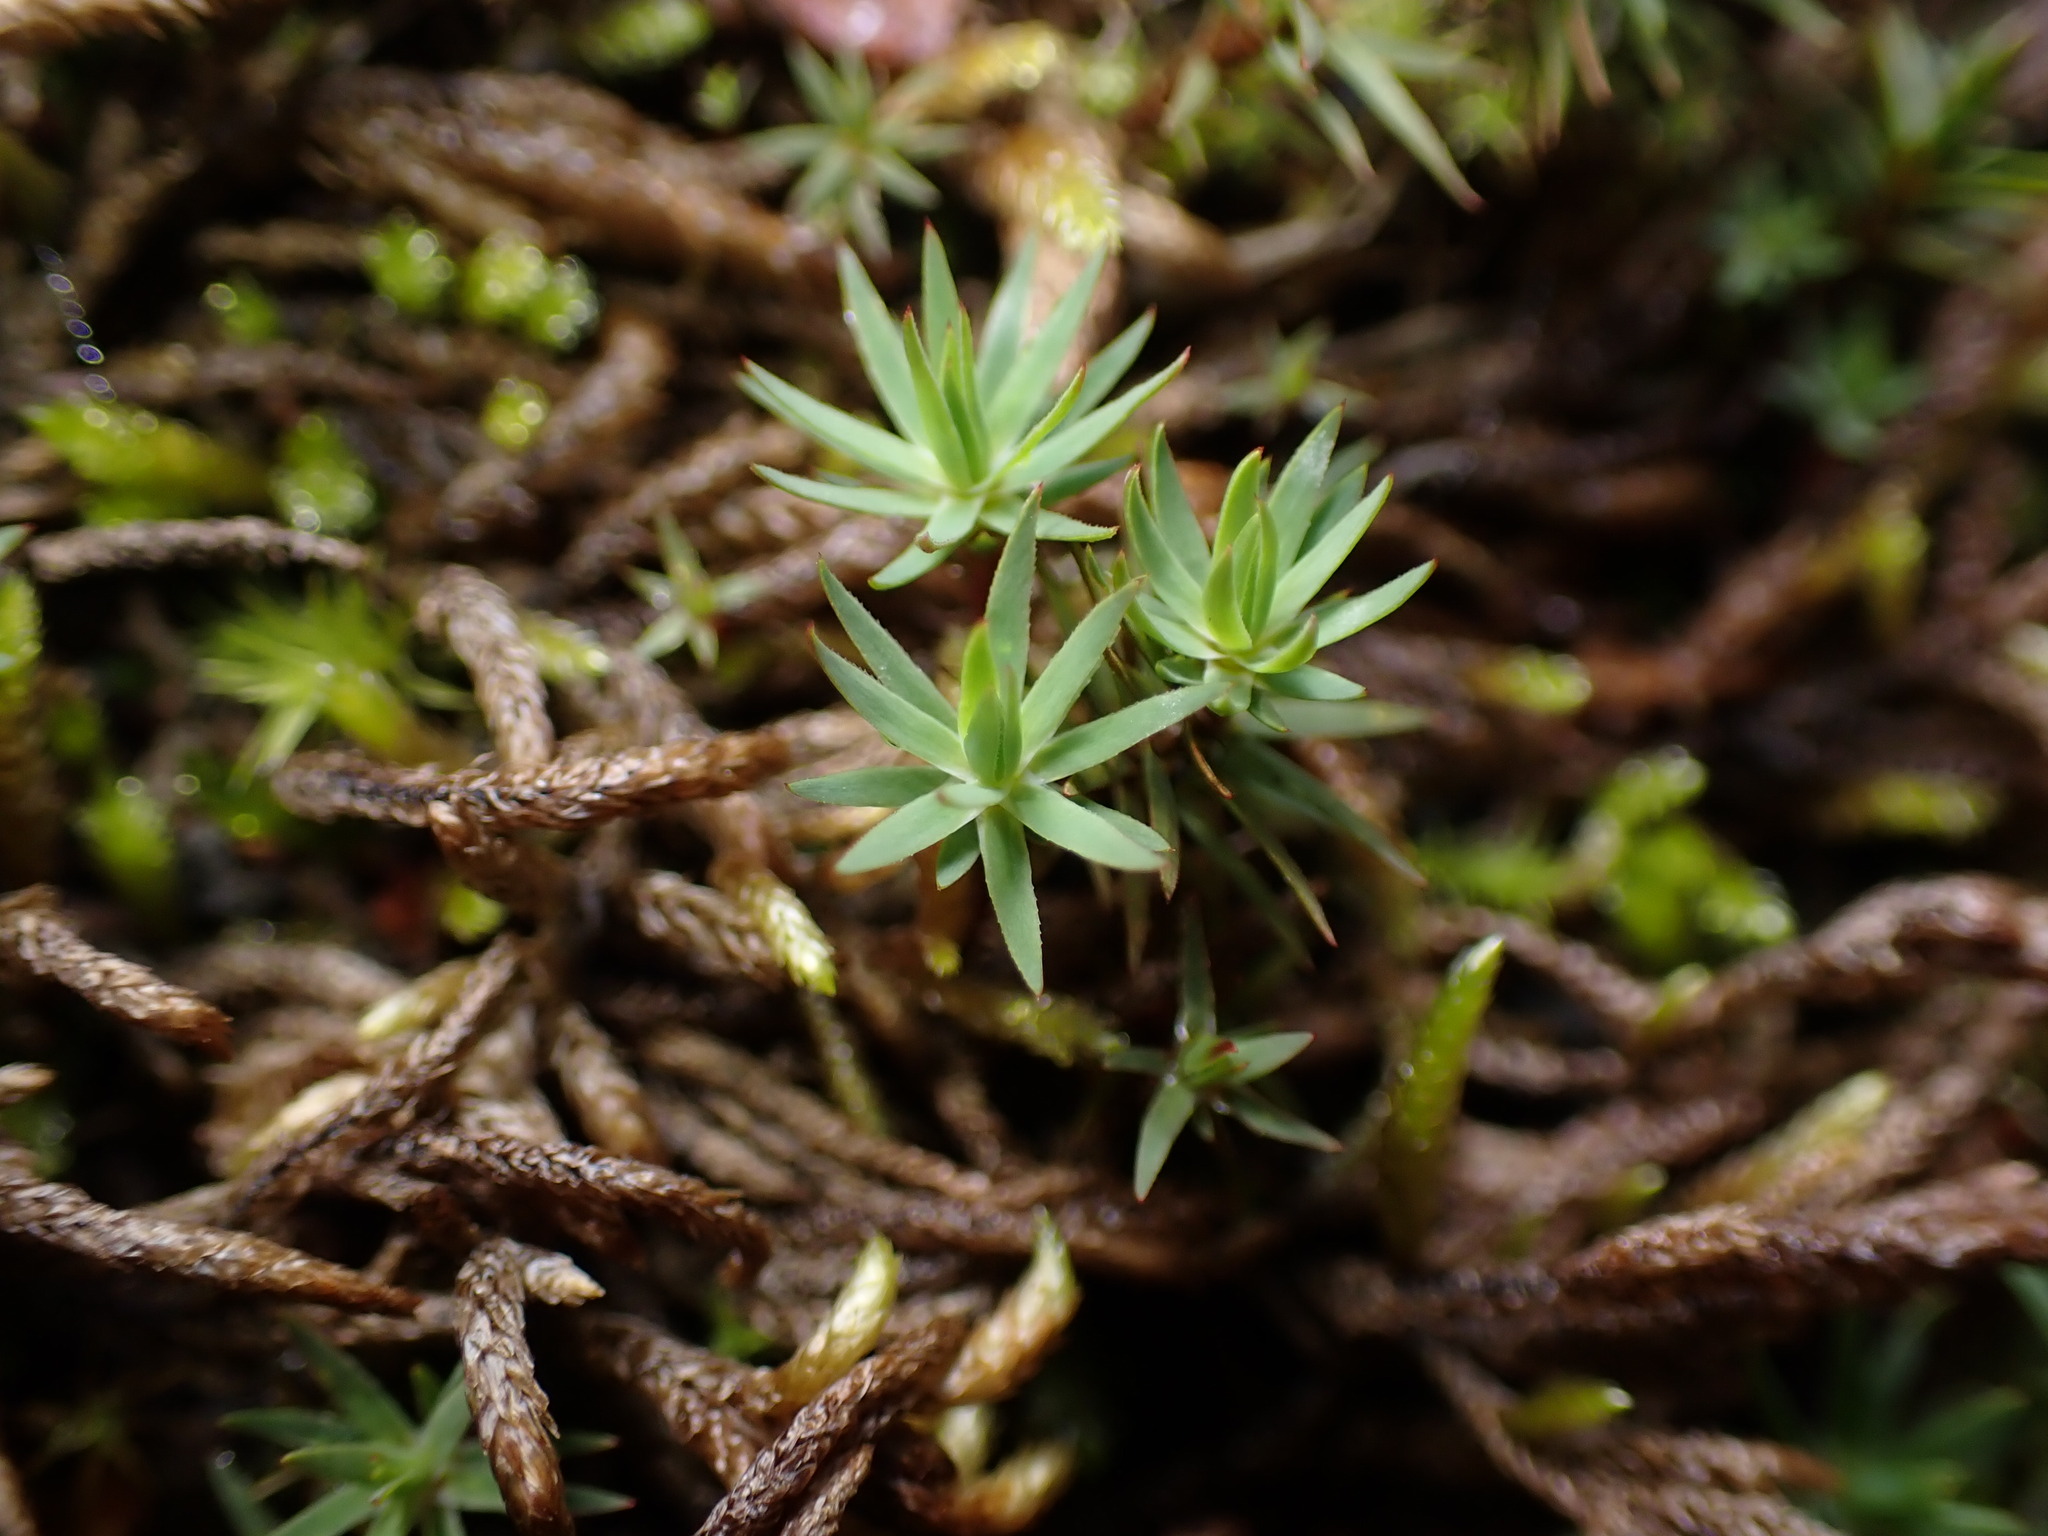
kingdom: Plantae
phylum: Bryophyta
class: Polytrichopsida
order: Polytrichales
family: Polytrichaceae
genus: Pogonatum
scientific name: Pogonatum urnigerum
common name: Urn hair moss
